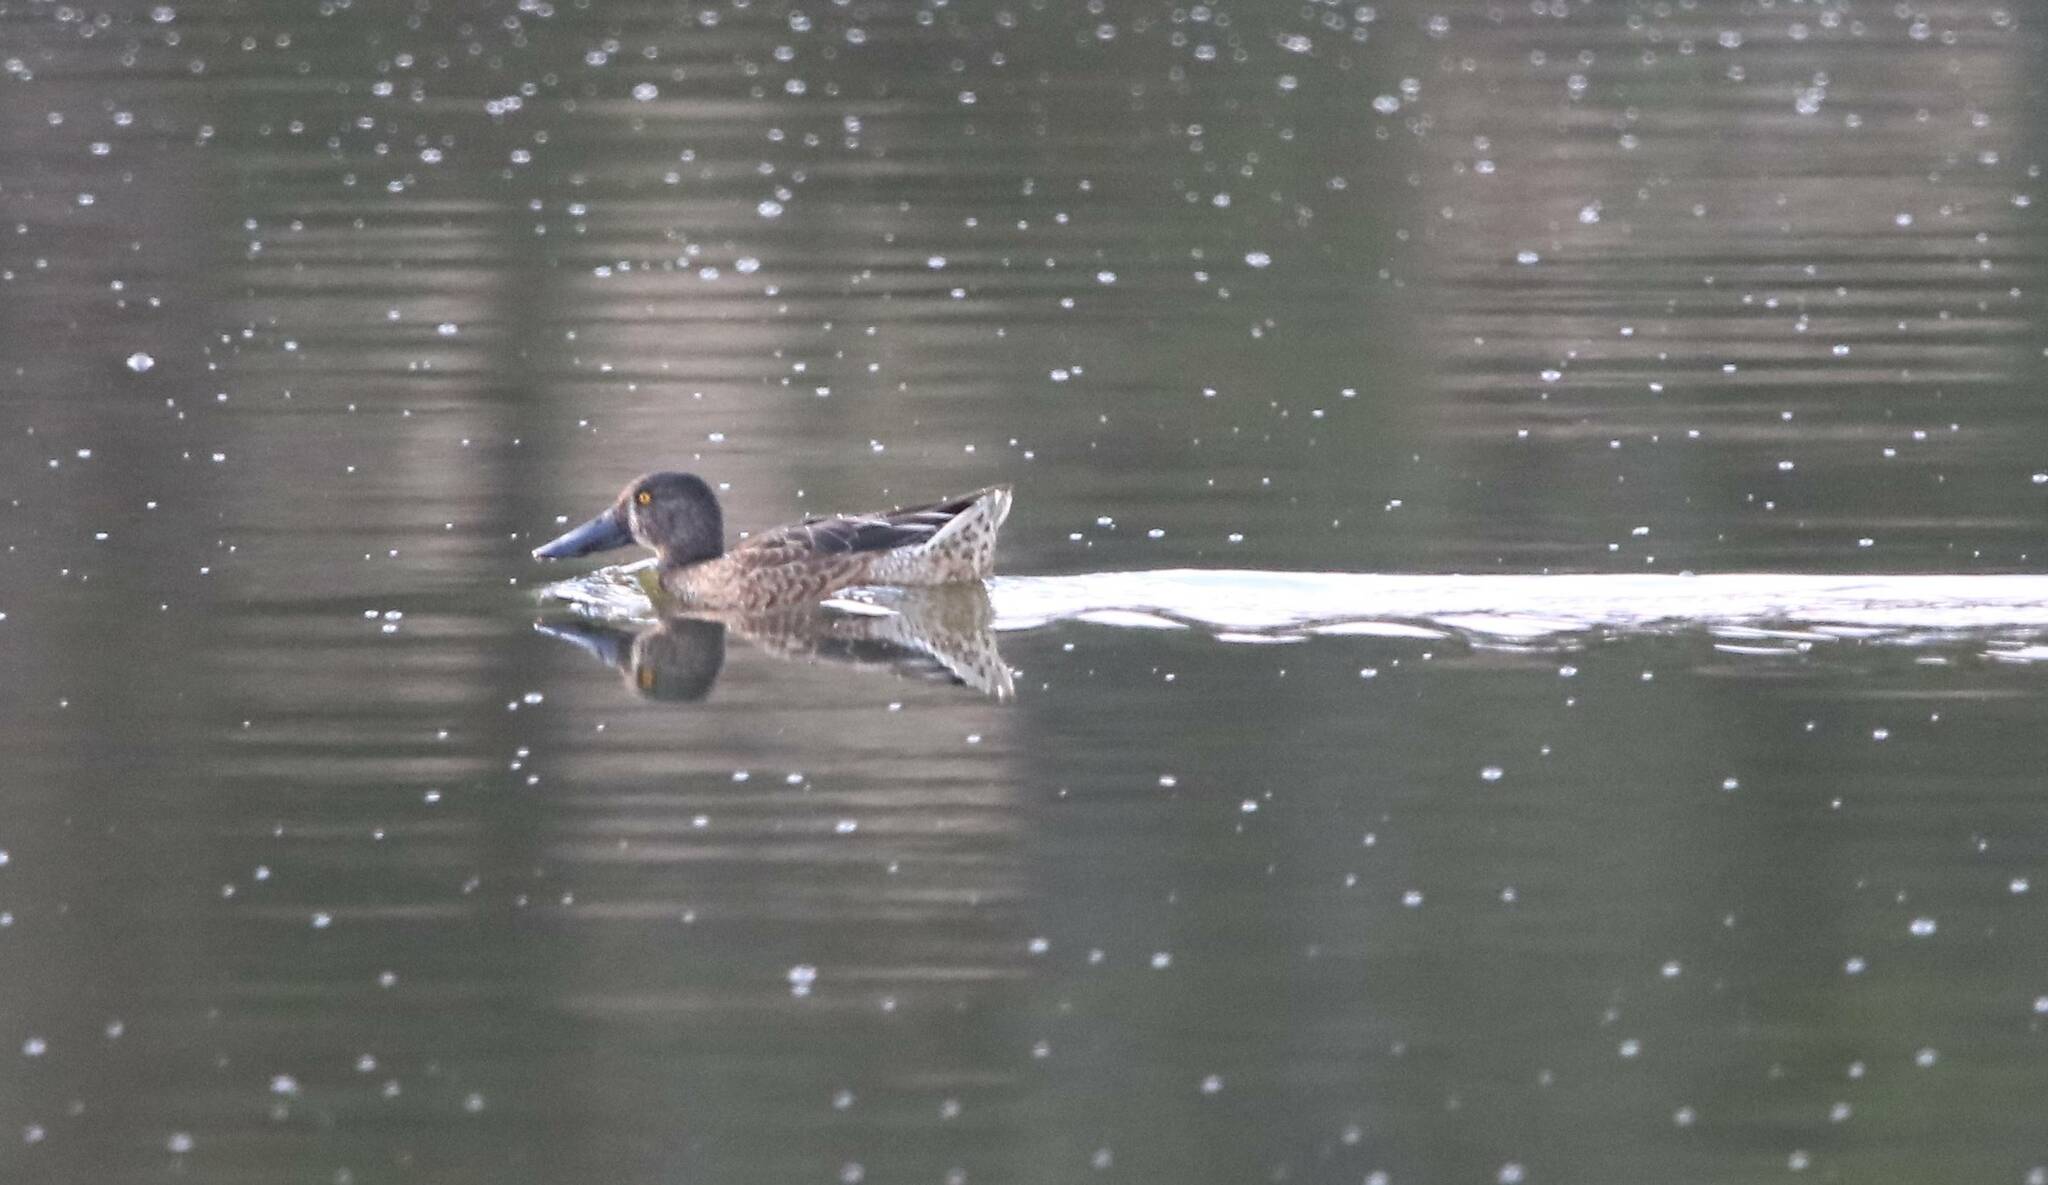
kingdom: Animalia
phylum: Chordata
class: Aves
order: Anseriformes
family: Anatidae
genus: Spatula
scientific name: Spatula clypeata
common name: Northern shoveler
